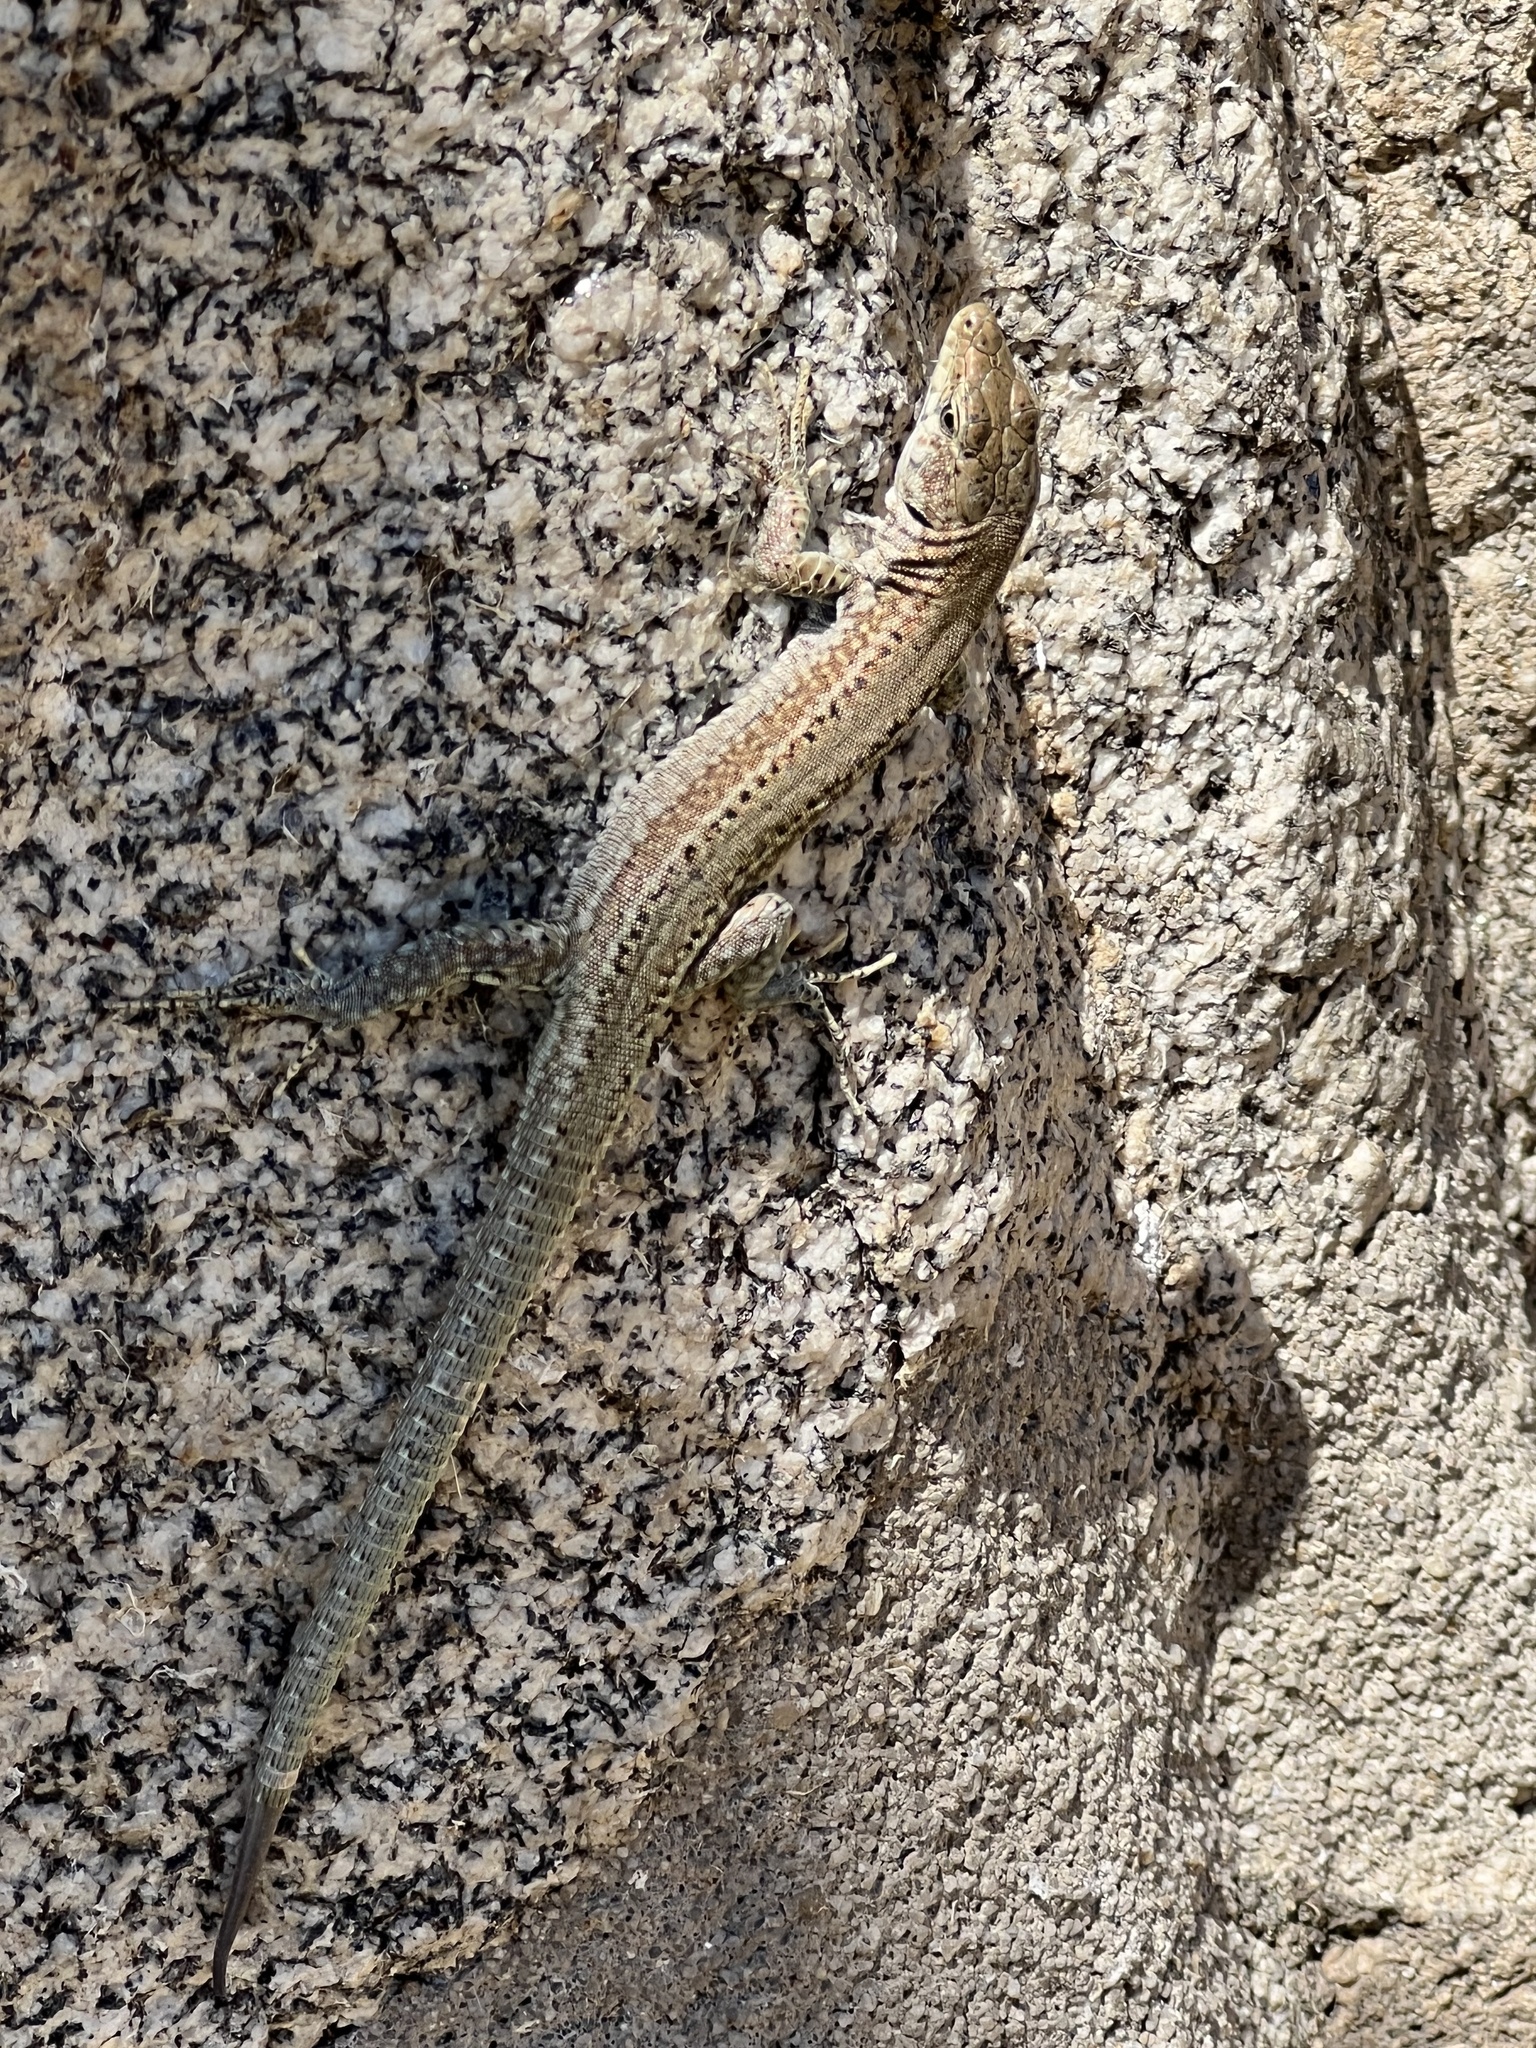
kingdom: Animalia
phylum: Chordata
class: Squamata
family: Lacertidae
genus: Podarcis
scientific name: Podarcis guadarramae
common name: Guadarrama wall lizard
